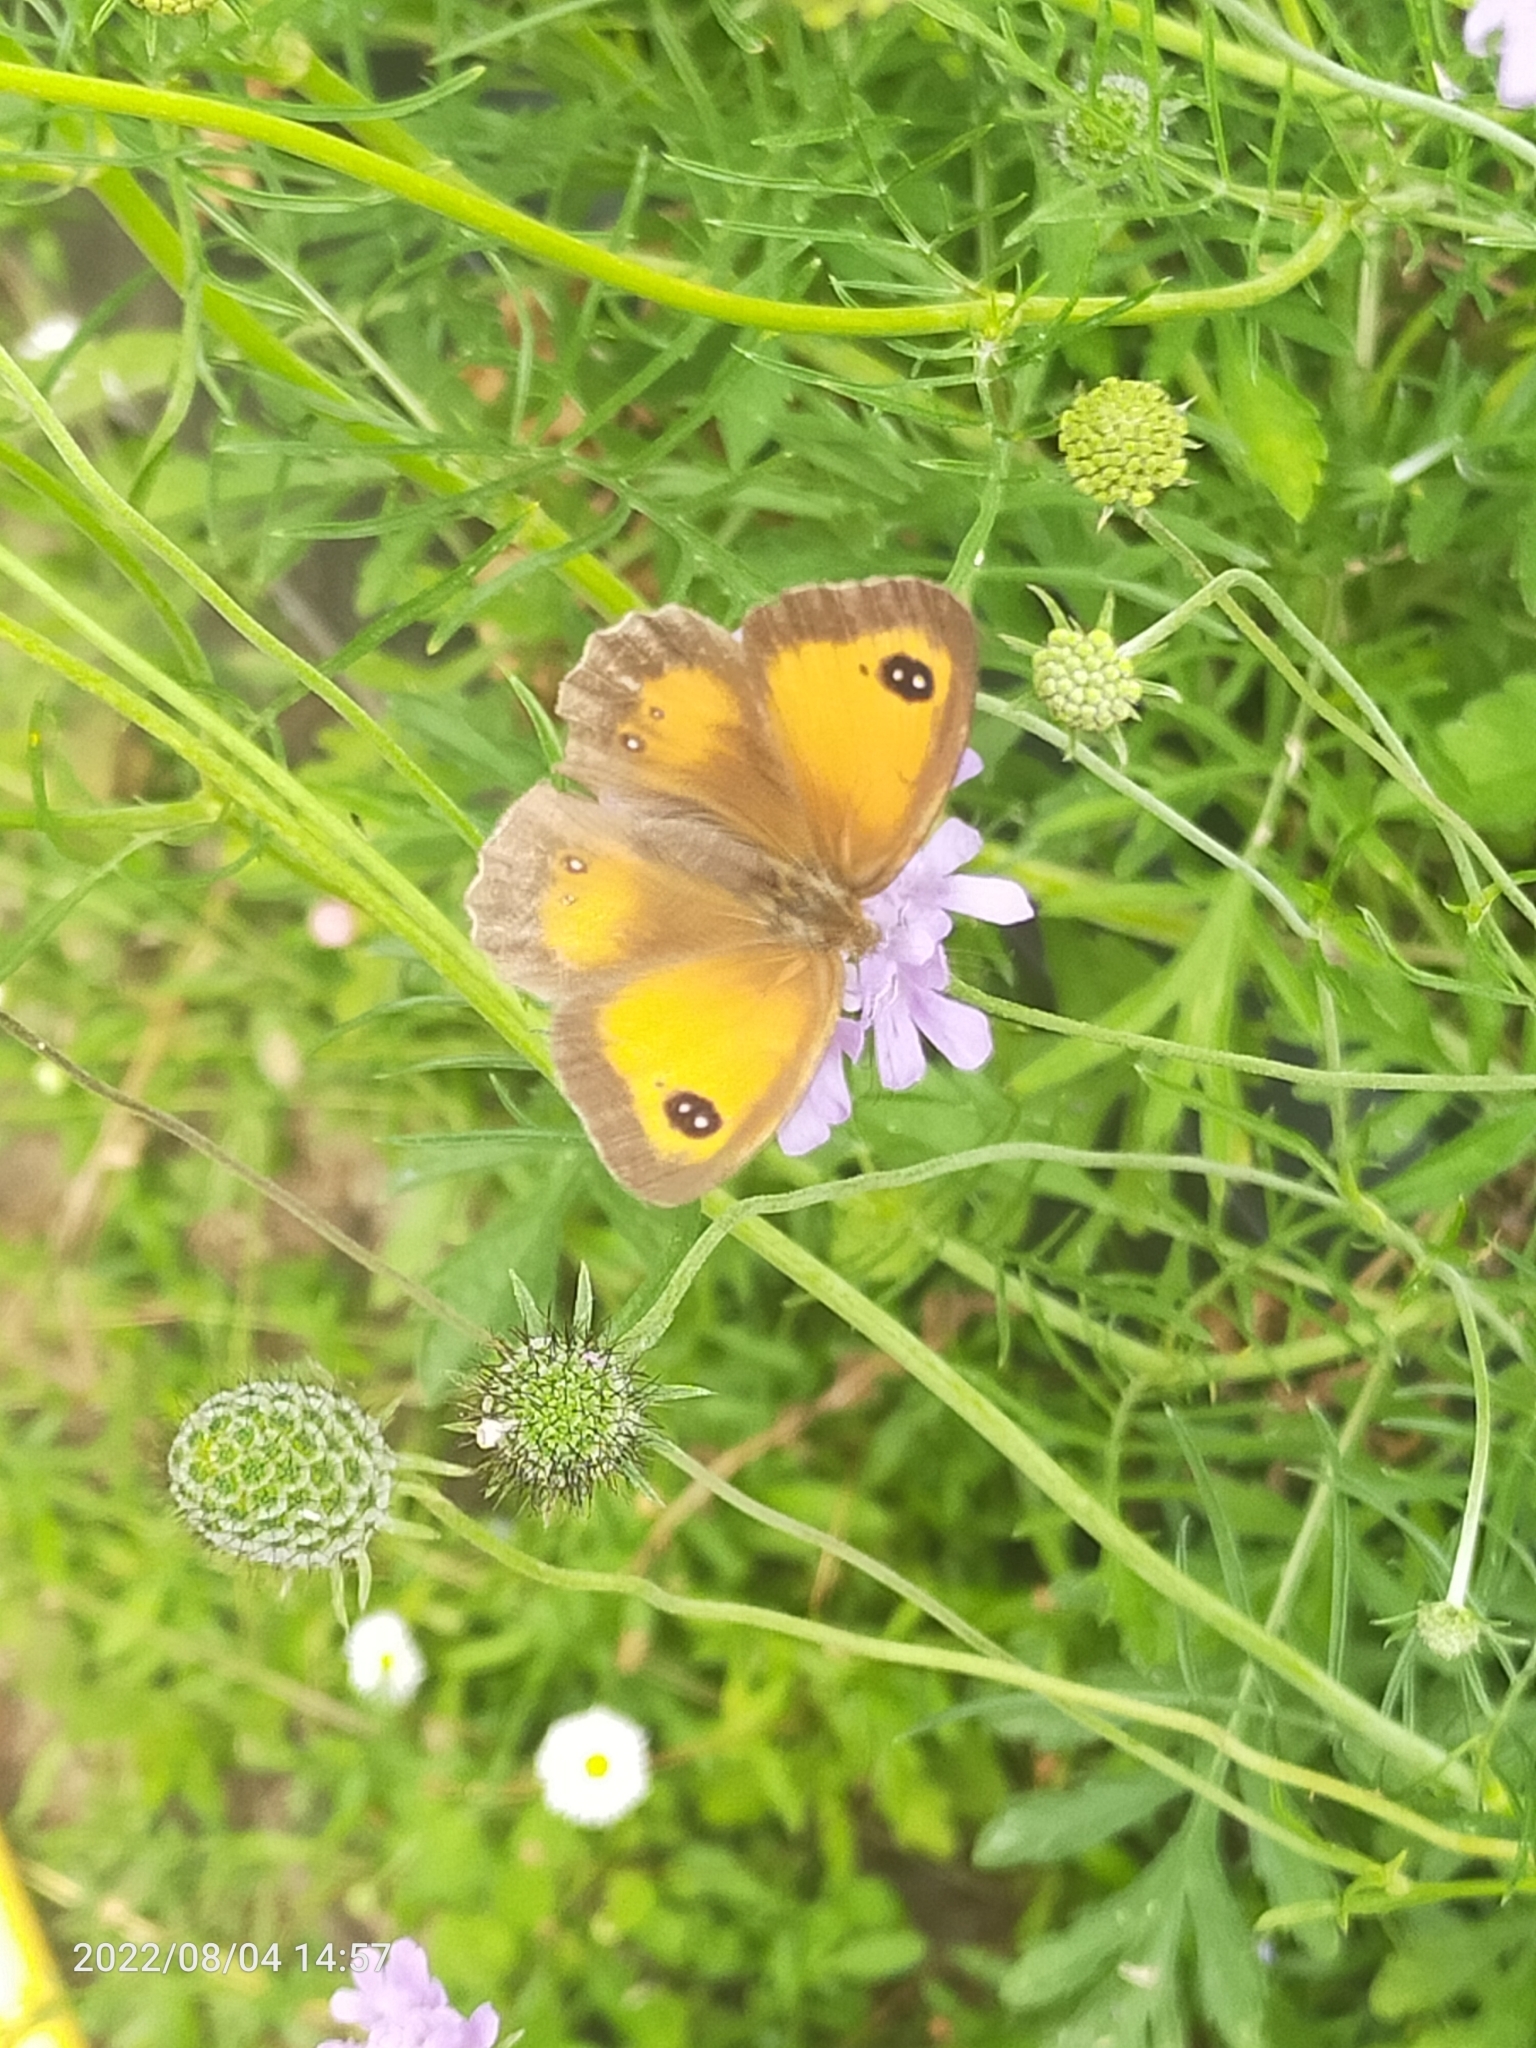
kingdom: Animalia
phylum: Arthropoda
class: Insecta
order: Lepidoptera
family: Nymphalidae
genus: Pyronia
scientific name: Pyronia tithonus
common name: Gatekeeper
